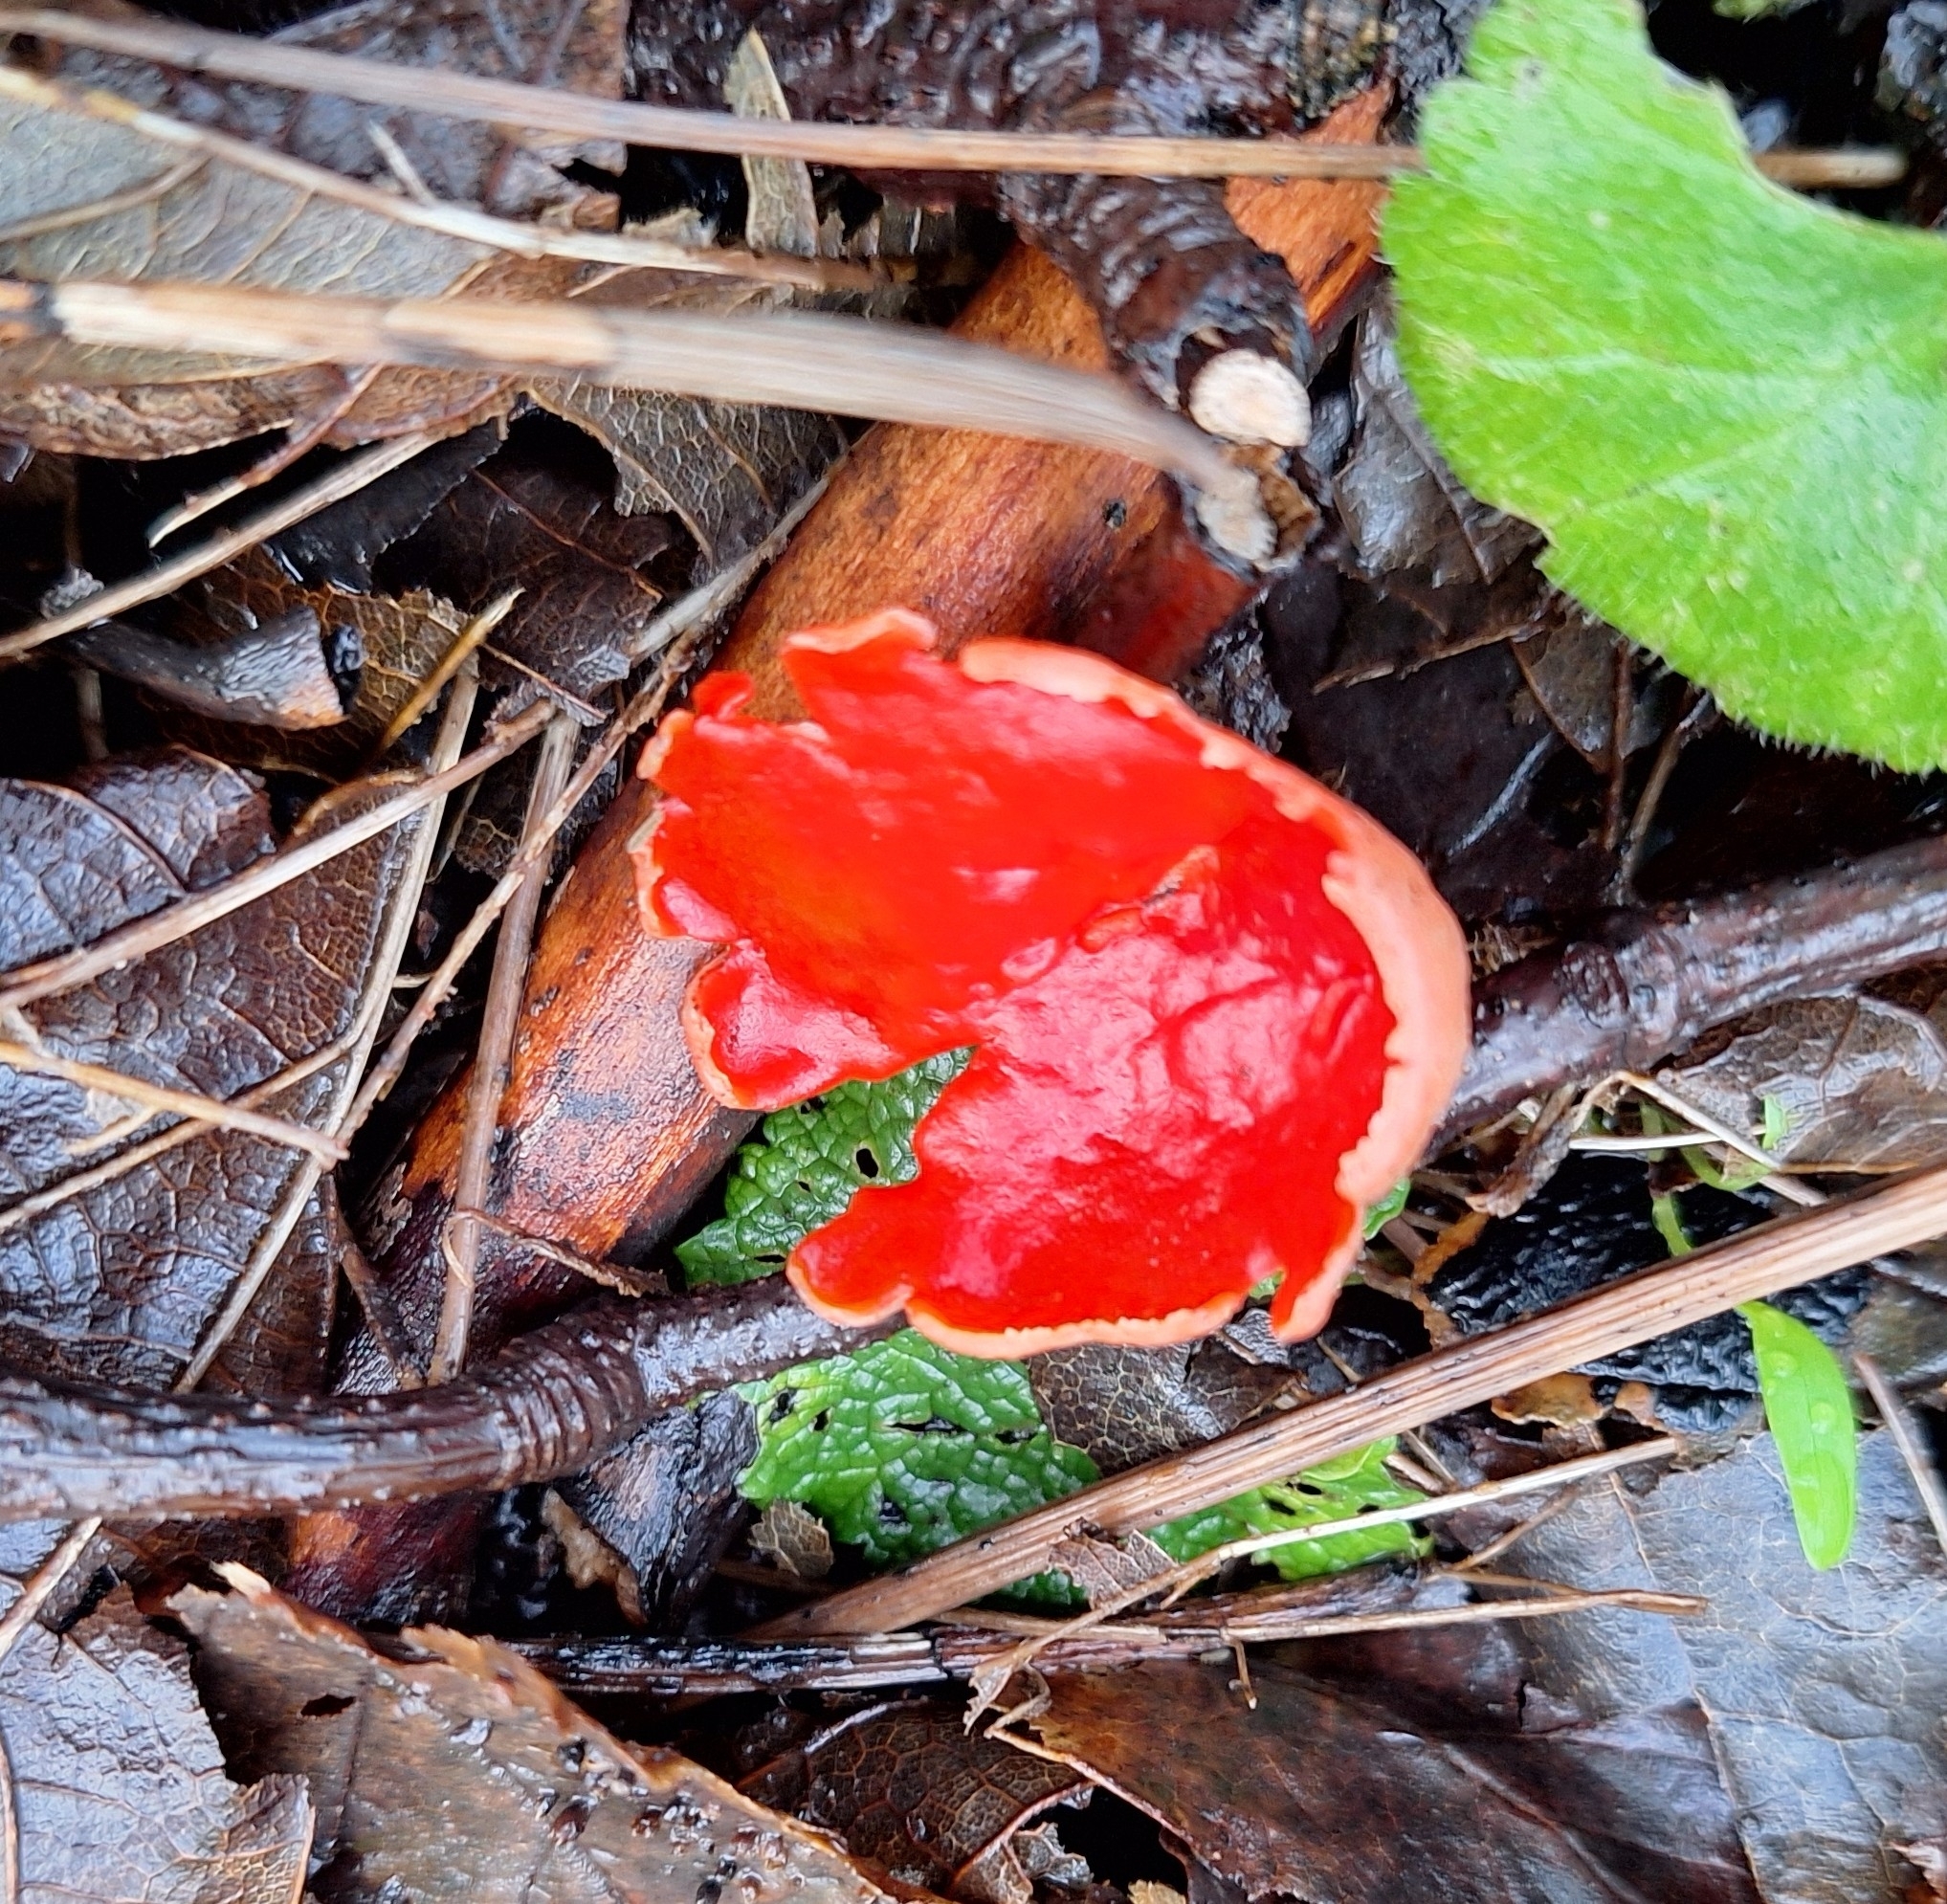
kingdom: Fungi
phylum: Ascomycota
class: Pezizomycetes
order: Pezizales
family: Sarcoscyphaceae
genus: Sarcoscypha
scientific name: Sarcoscypha
